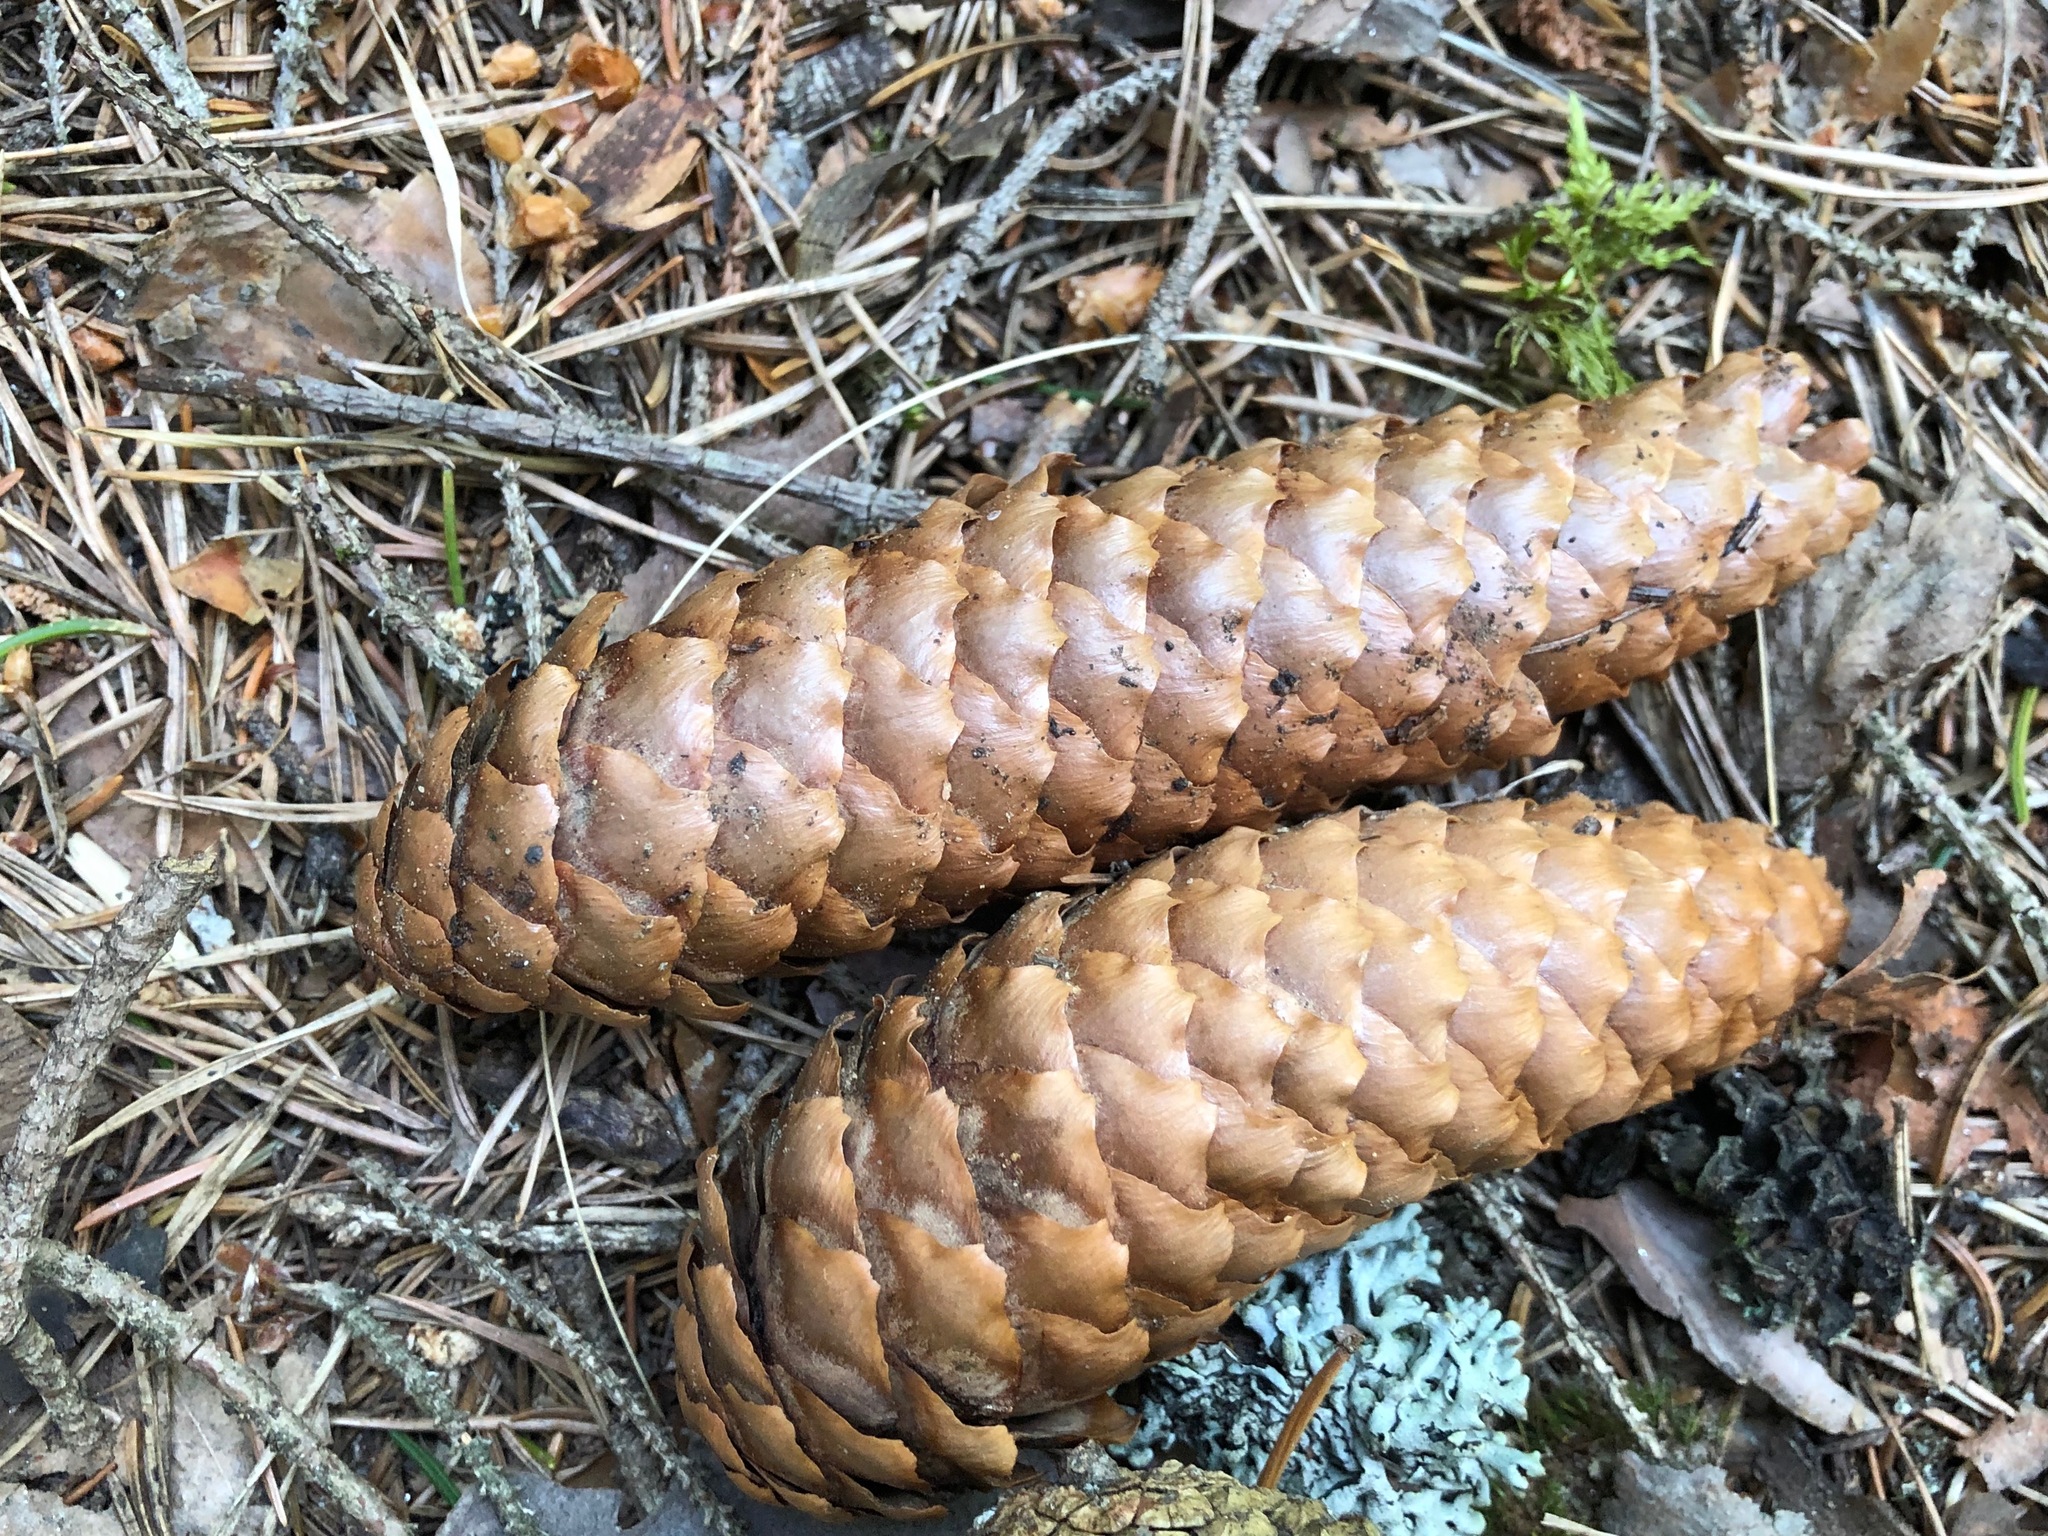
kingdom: Plantae
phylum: Tracheophyta
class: Pinopsida
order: Pinales
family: Pinaceae
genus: Picea
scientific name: Picea abies
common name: Norway spruce
